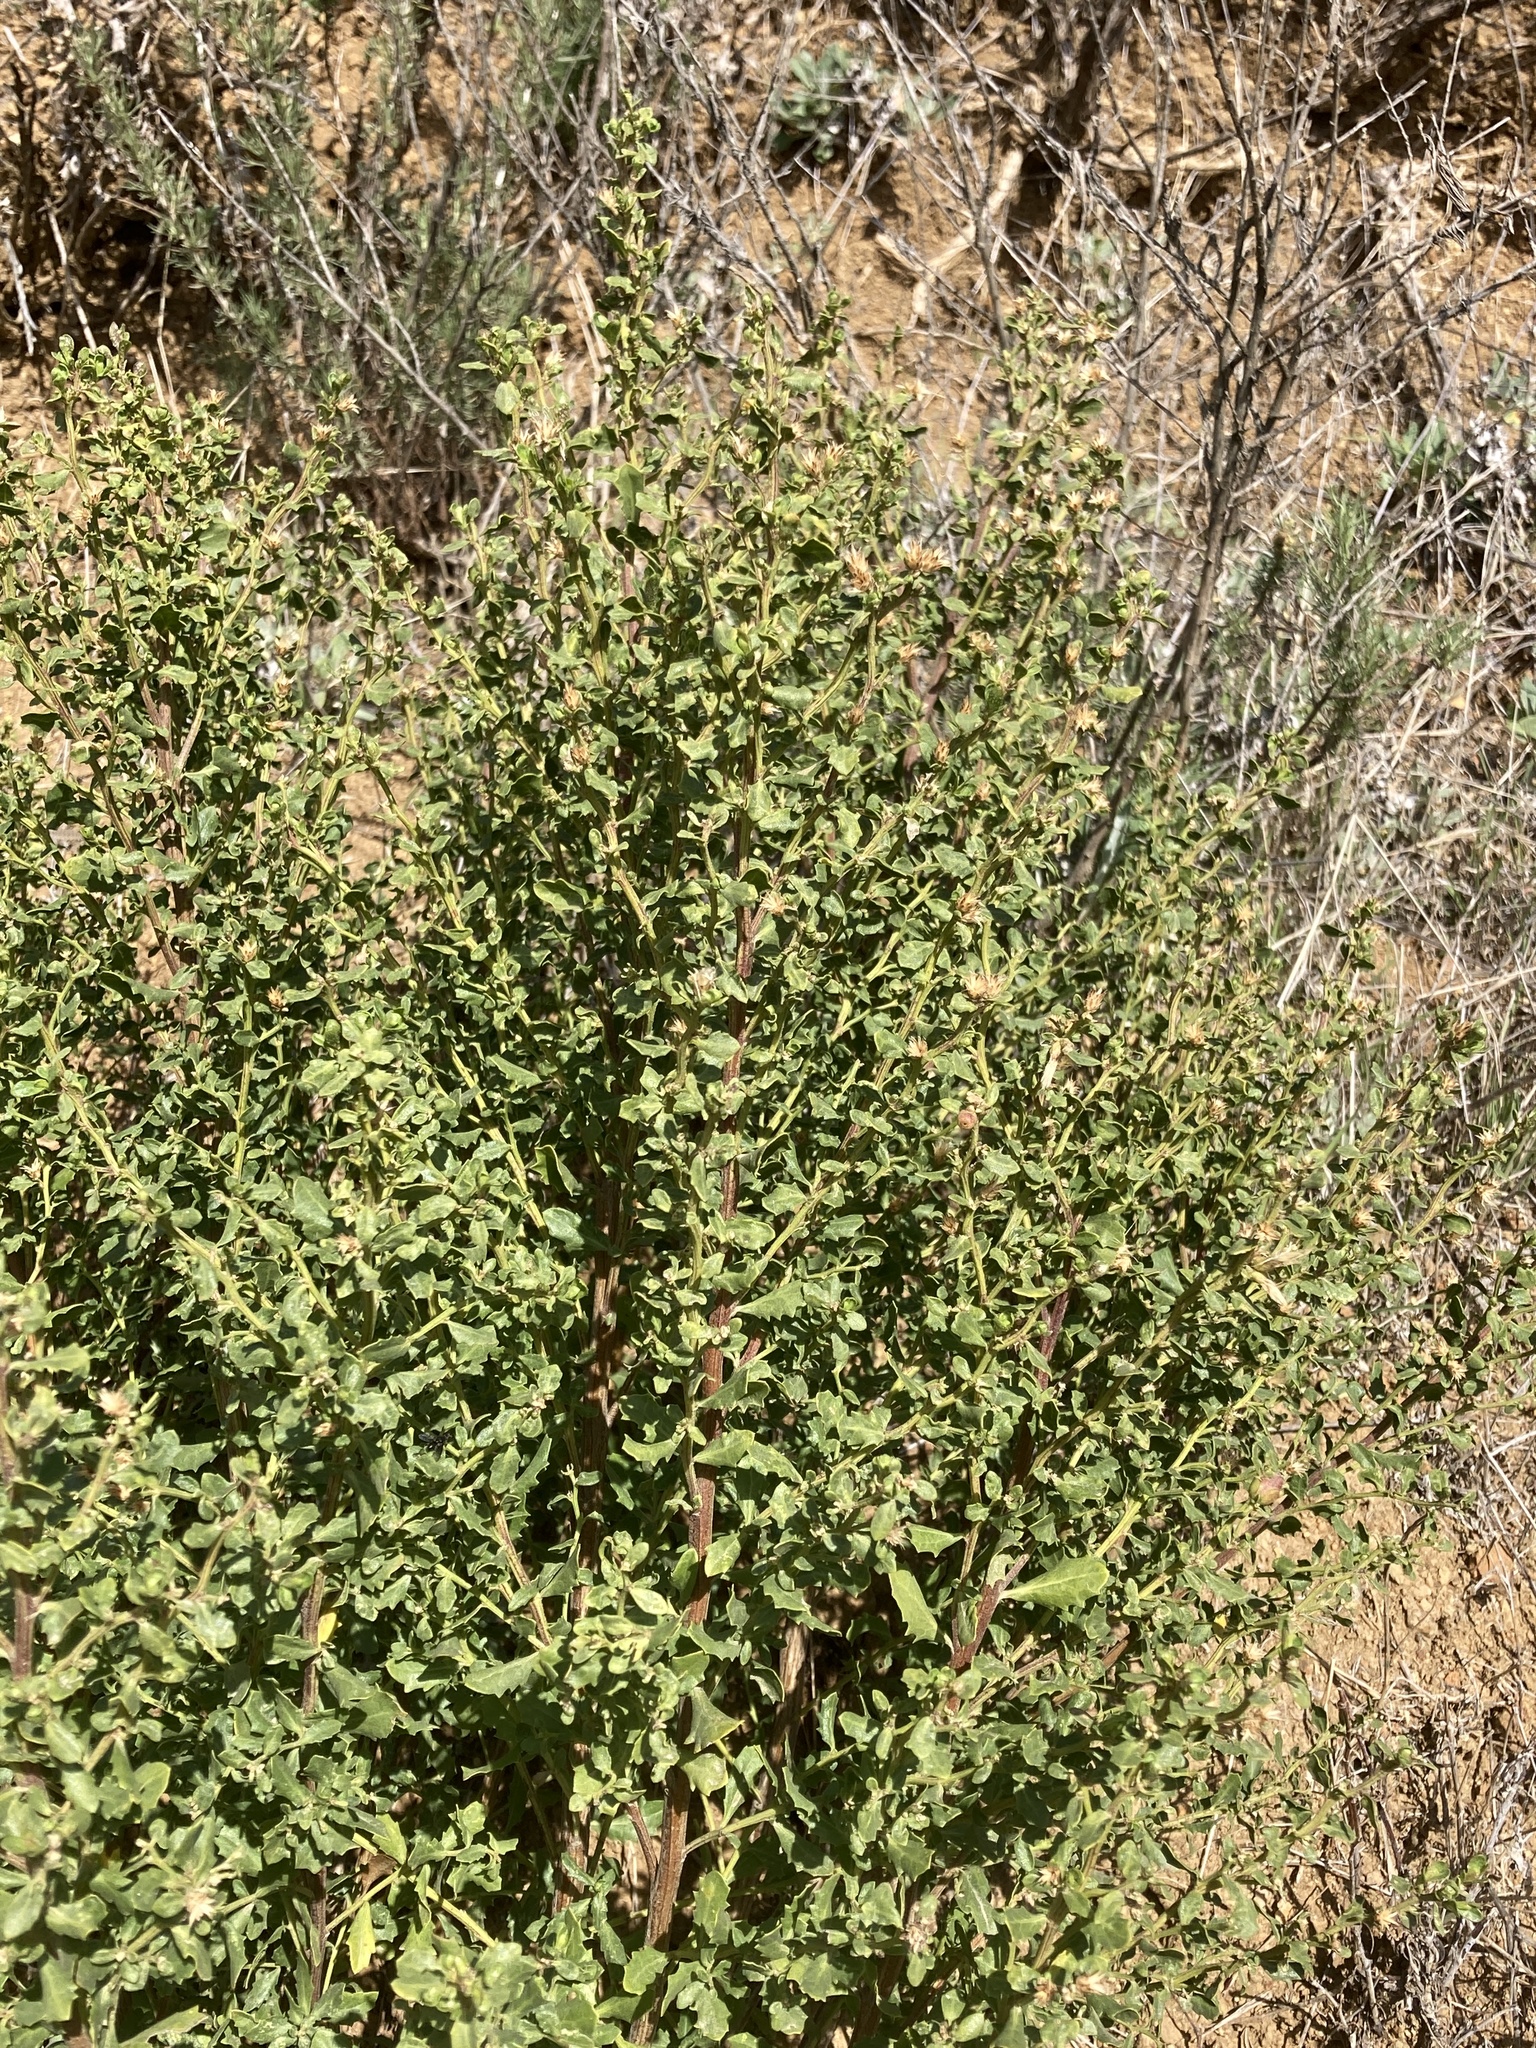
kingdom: Plantae
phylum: Tracheophyta
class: Magnoliopsida
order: Asterales
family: Asteraceae
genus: Baccharis
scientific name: Baccharis pilularis
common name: Coyotebrush
